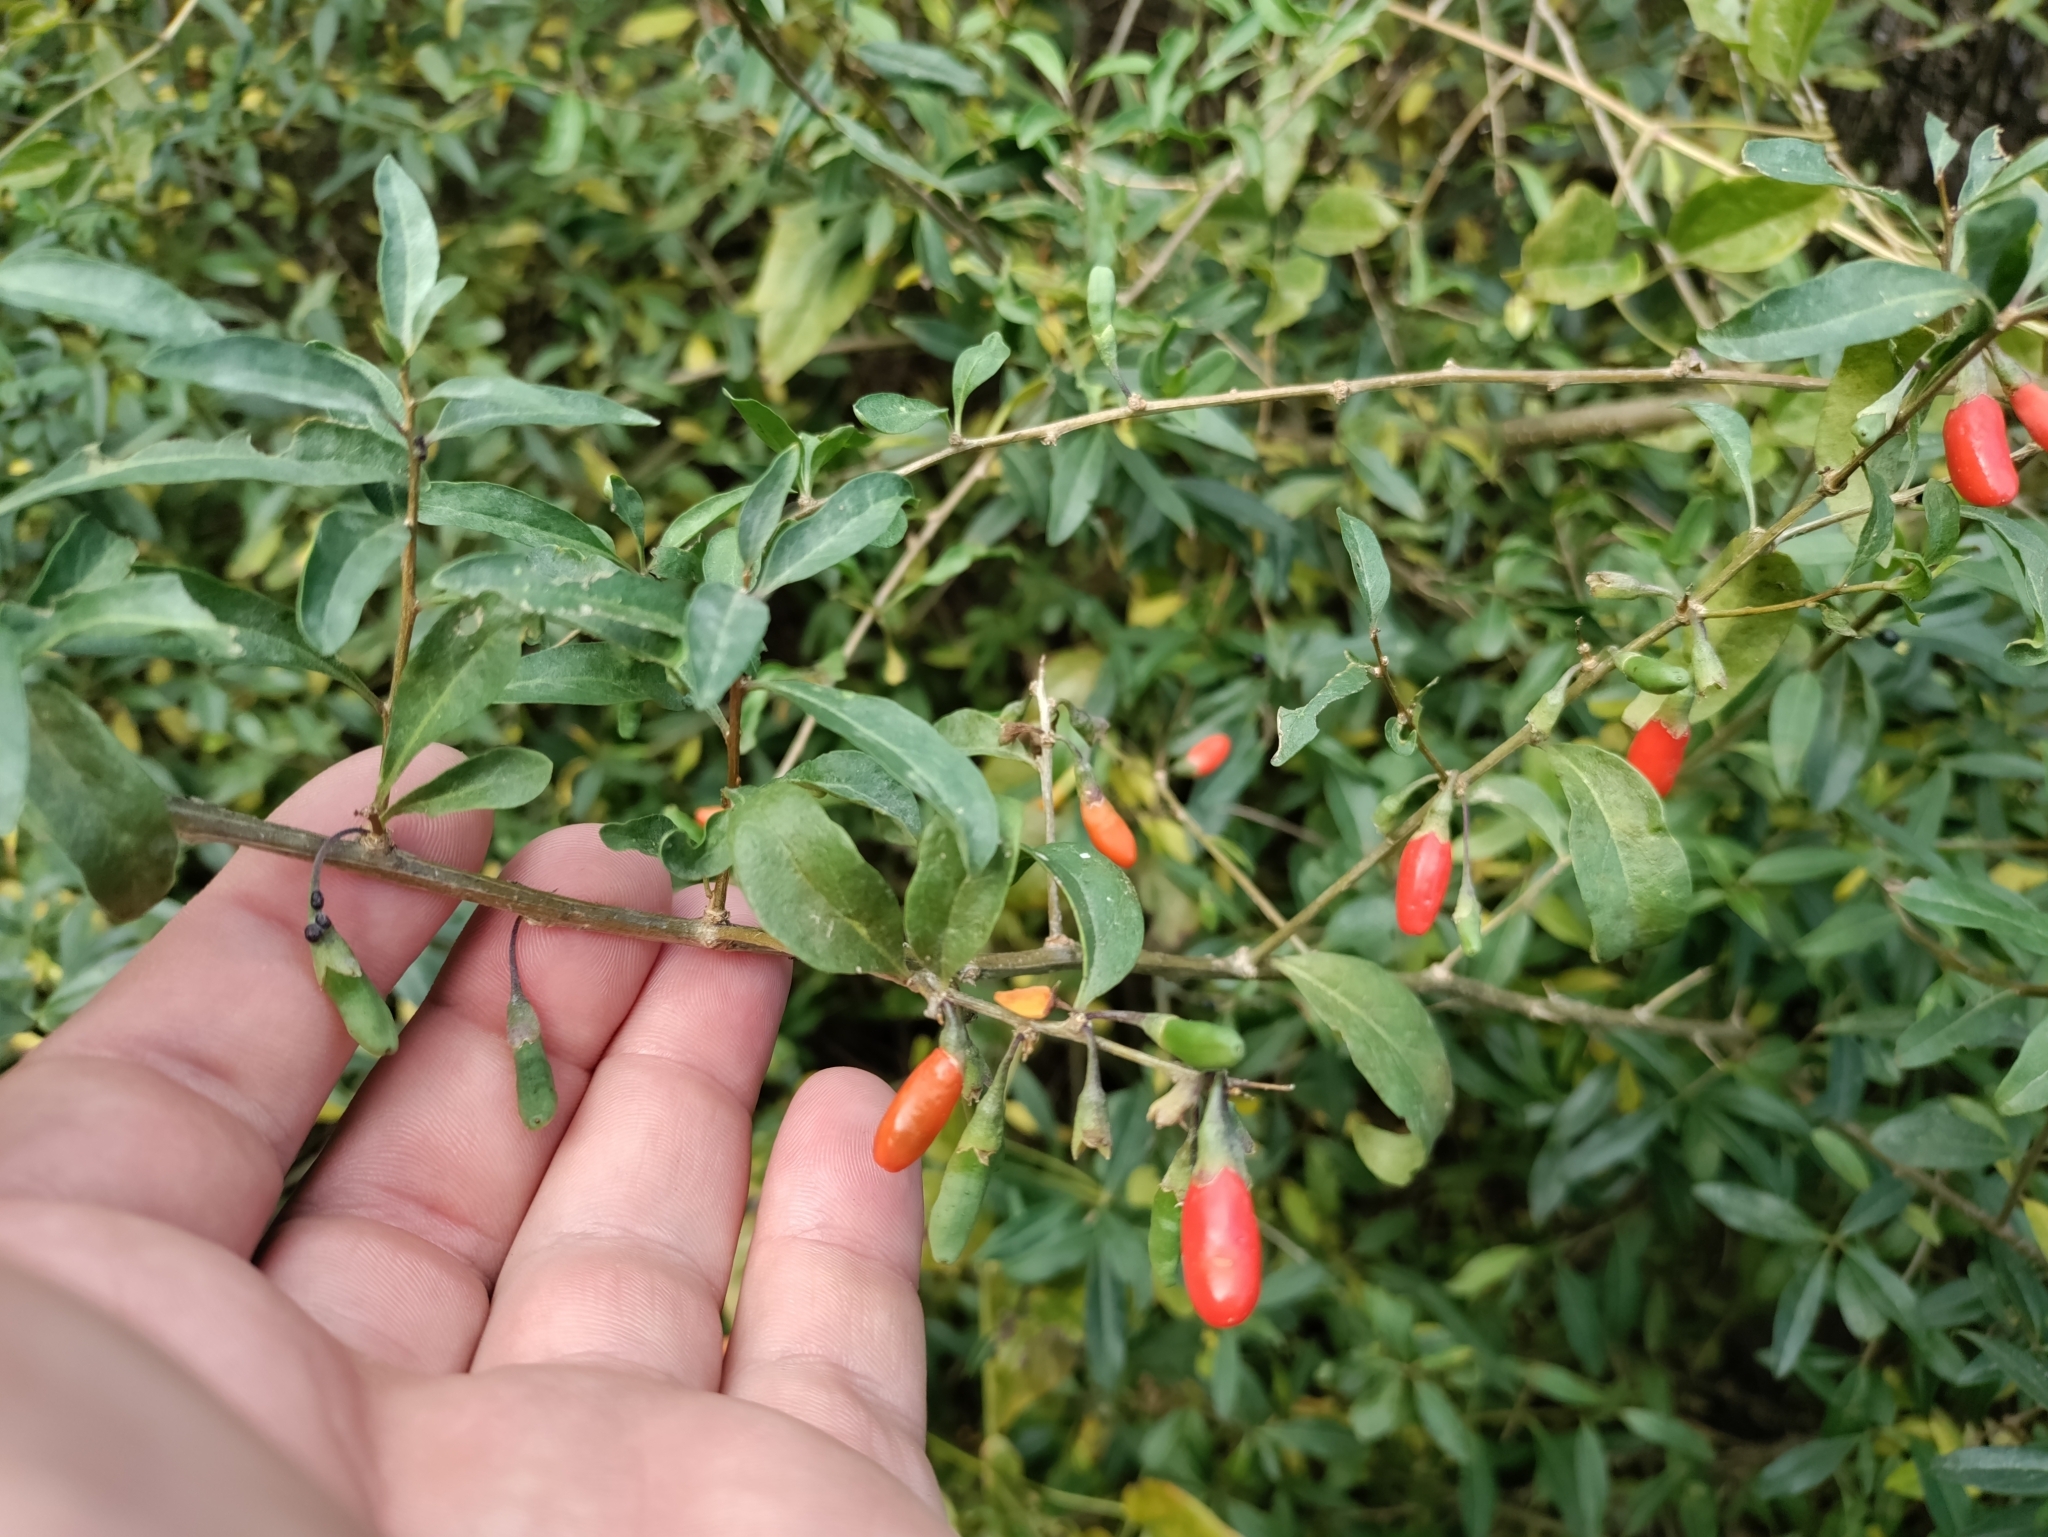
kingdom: Plantae
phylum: Tracheophyta
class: Magnoliopsida
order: Solanales
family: Solanaceae
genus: Lycium
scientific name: Lycium barbarum
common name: Duke of argyll's teaplant
